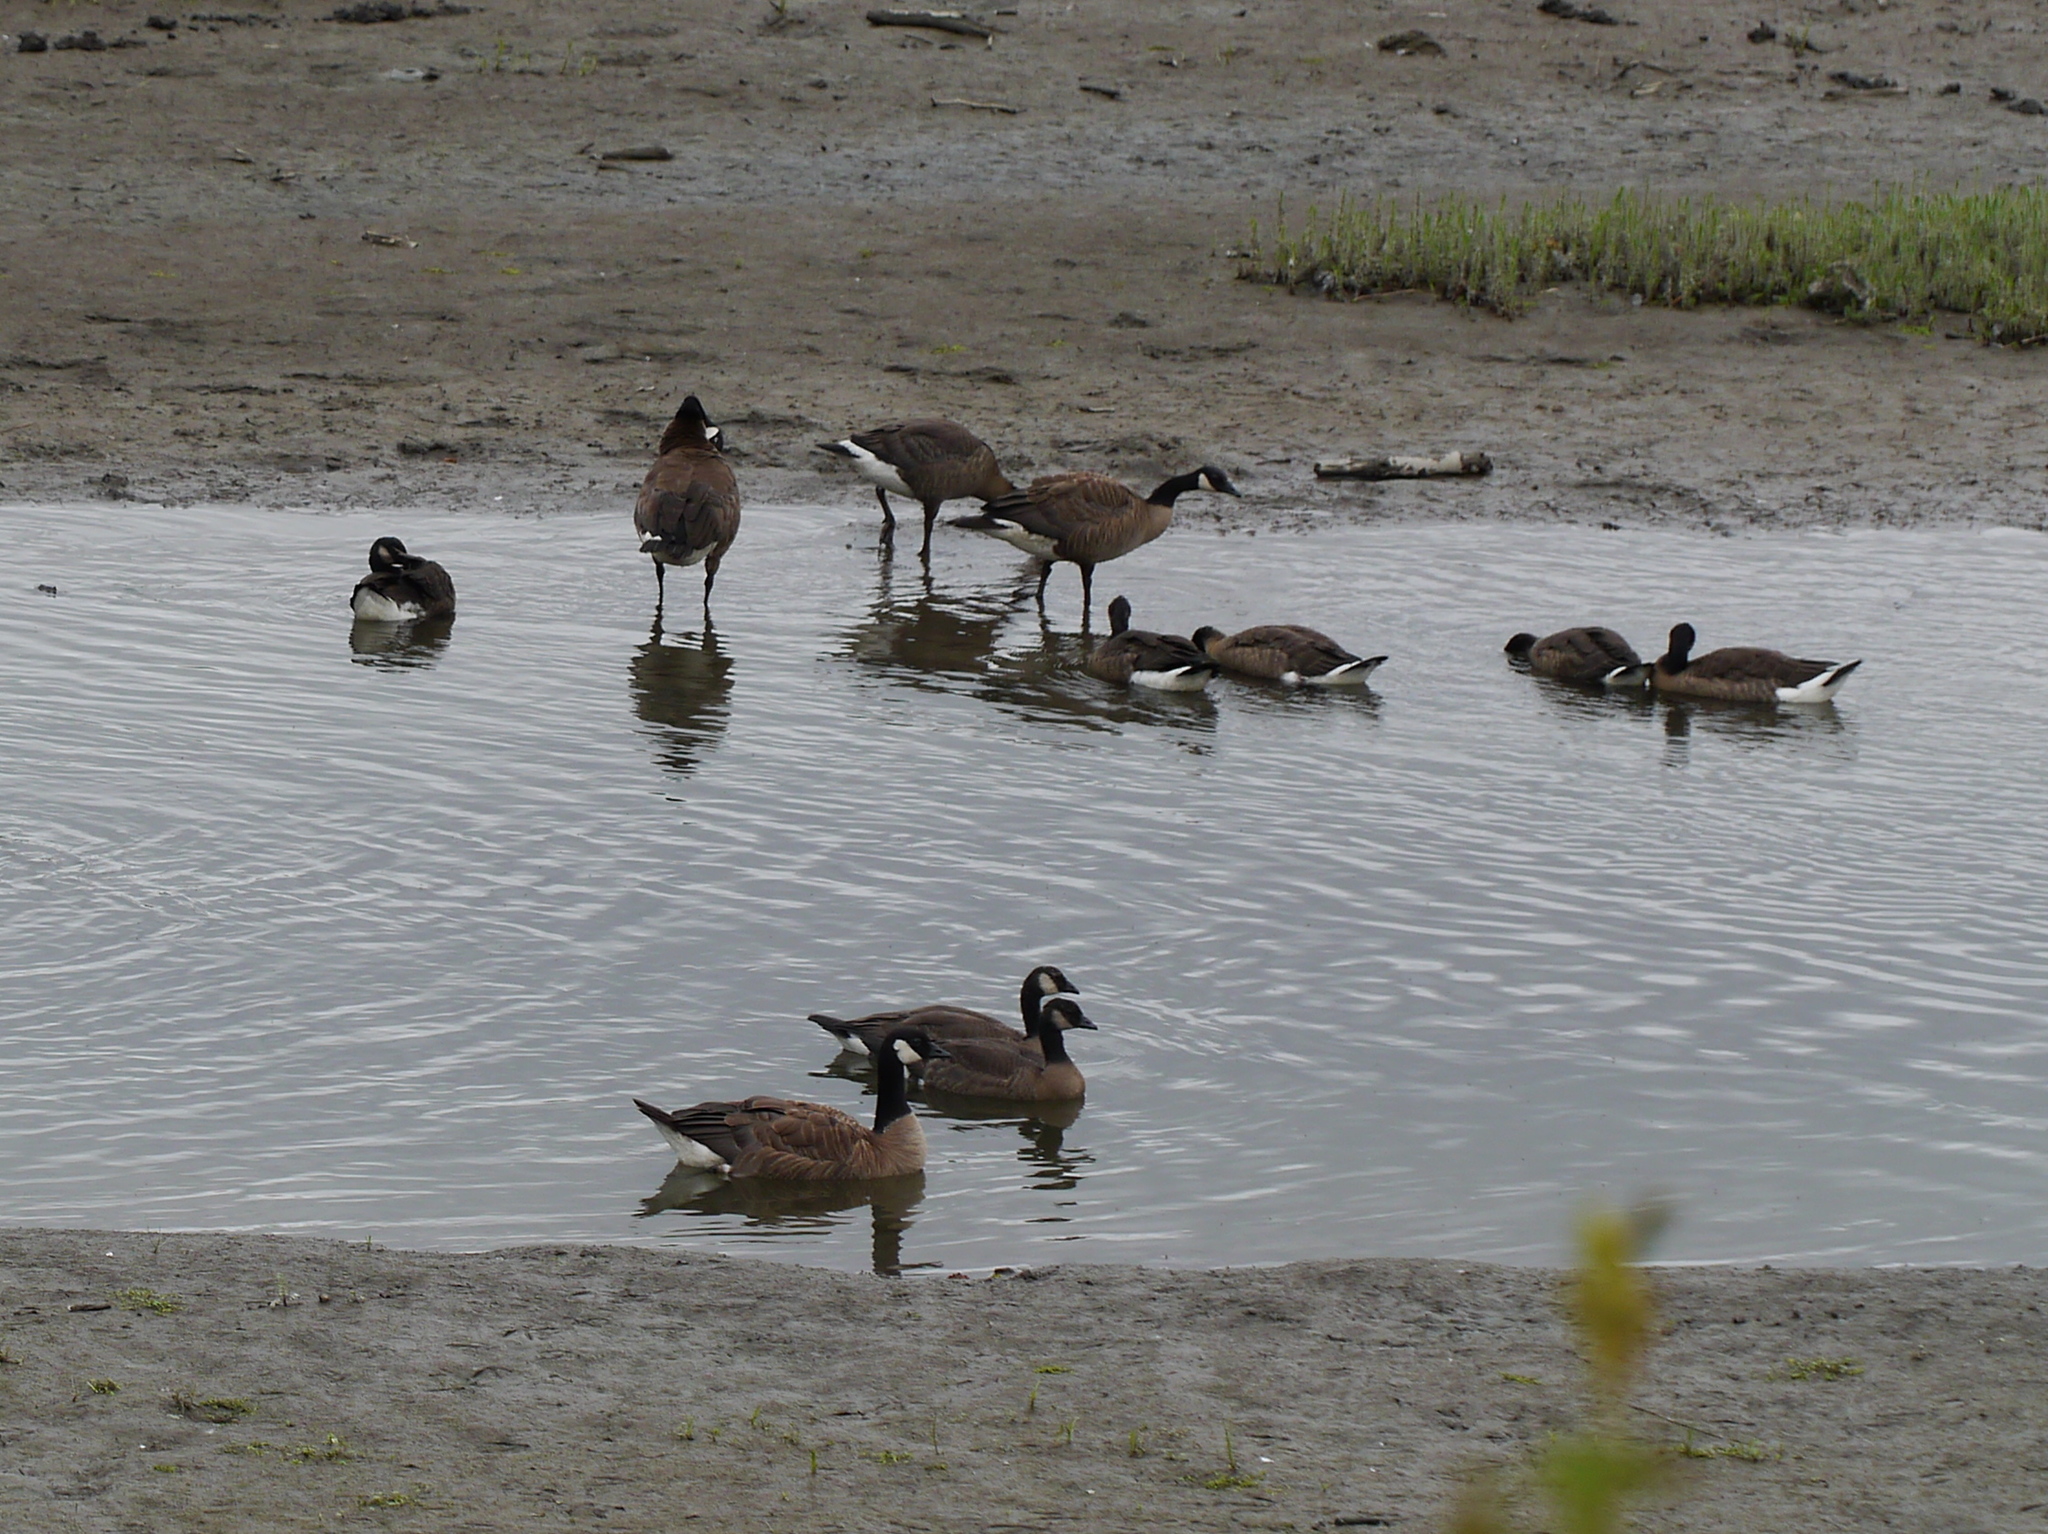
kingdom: Animalia
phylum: Chordata
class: Aves
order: Anseriformes
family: Anatidae
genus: Branta
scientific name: Branta canadensis
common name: Canada goose
